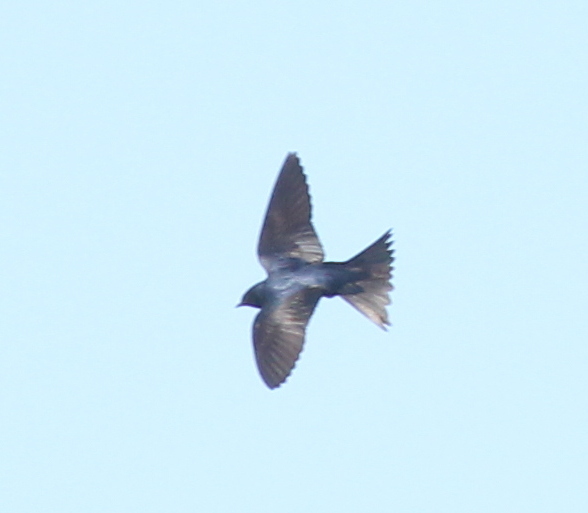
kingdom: Animalia
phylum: Chordata
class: Aves
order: Passeriformes
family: Hirundinidae
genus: Progne
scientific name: Progne elegans
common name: Southern martin
